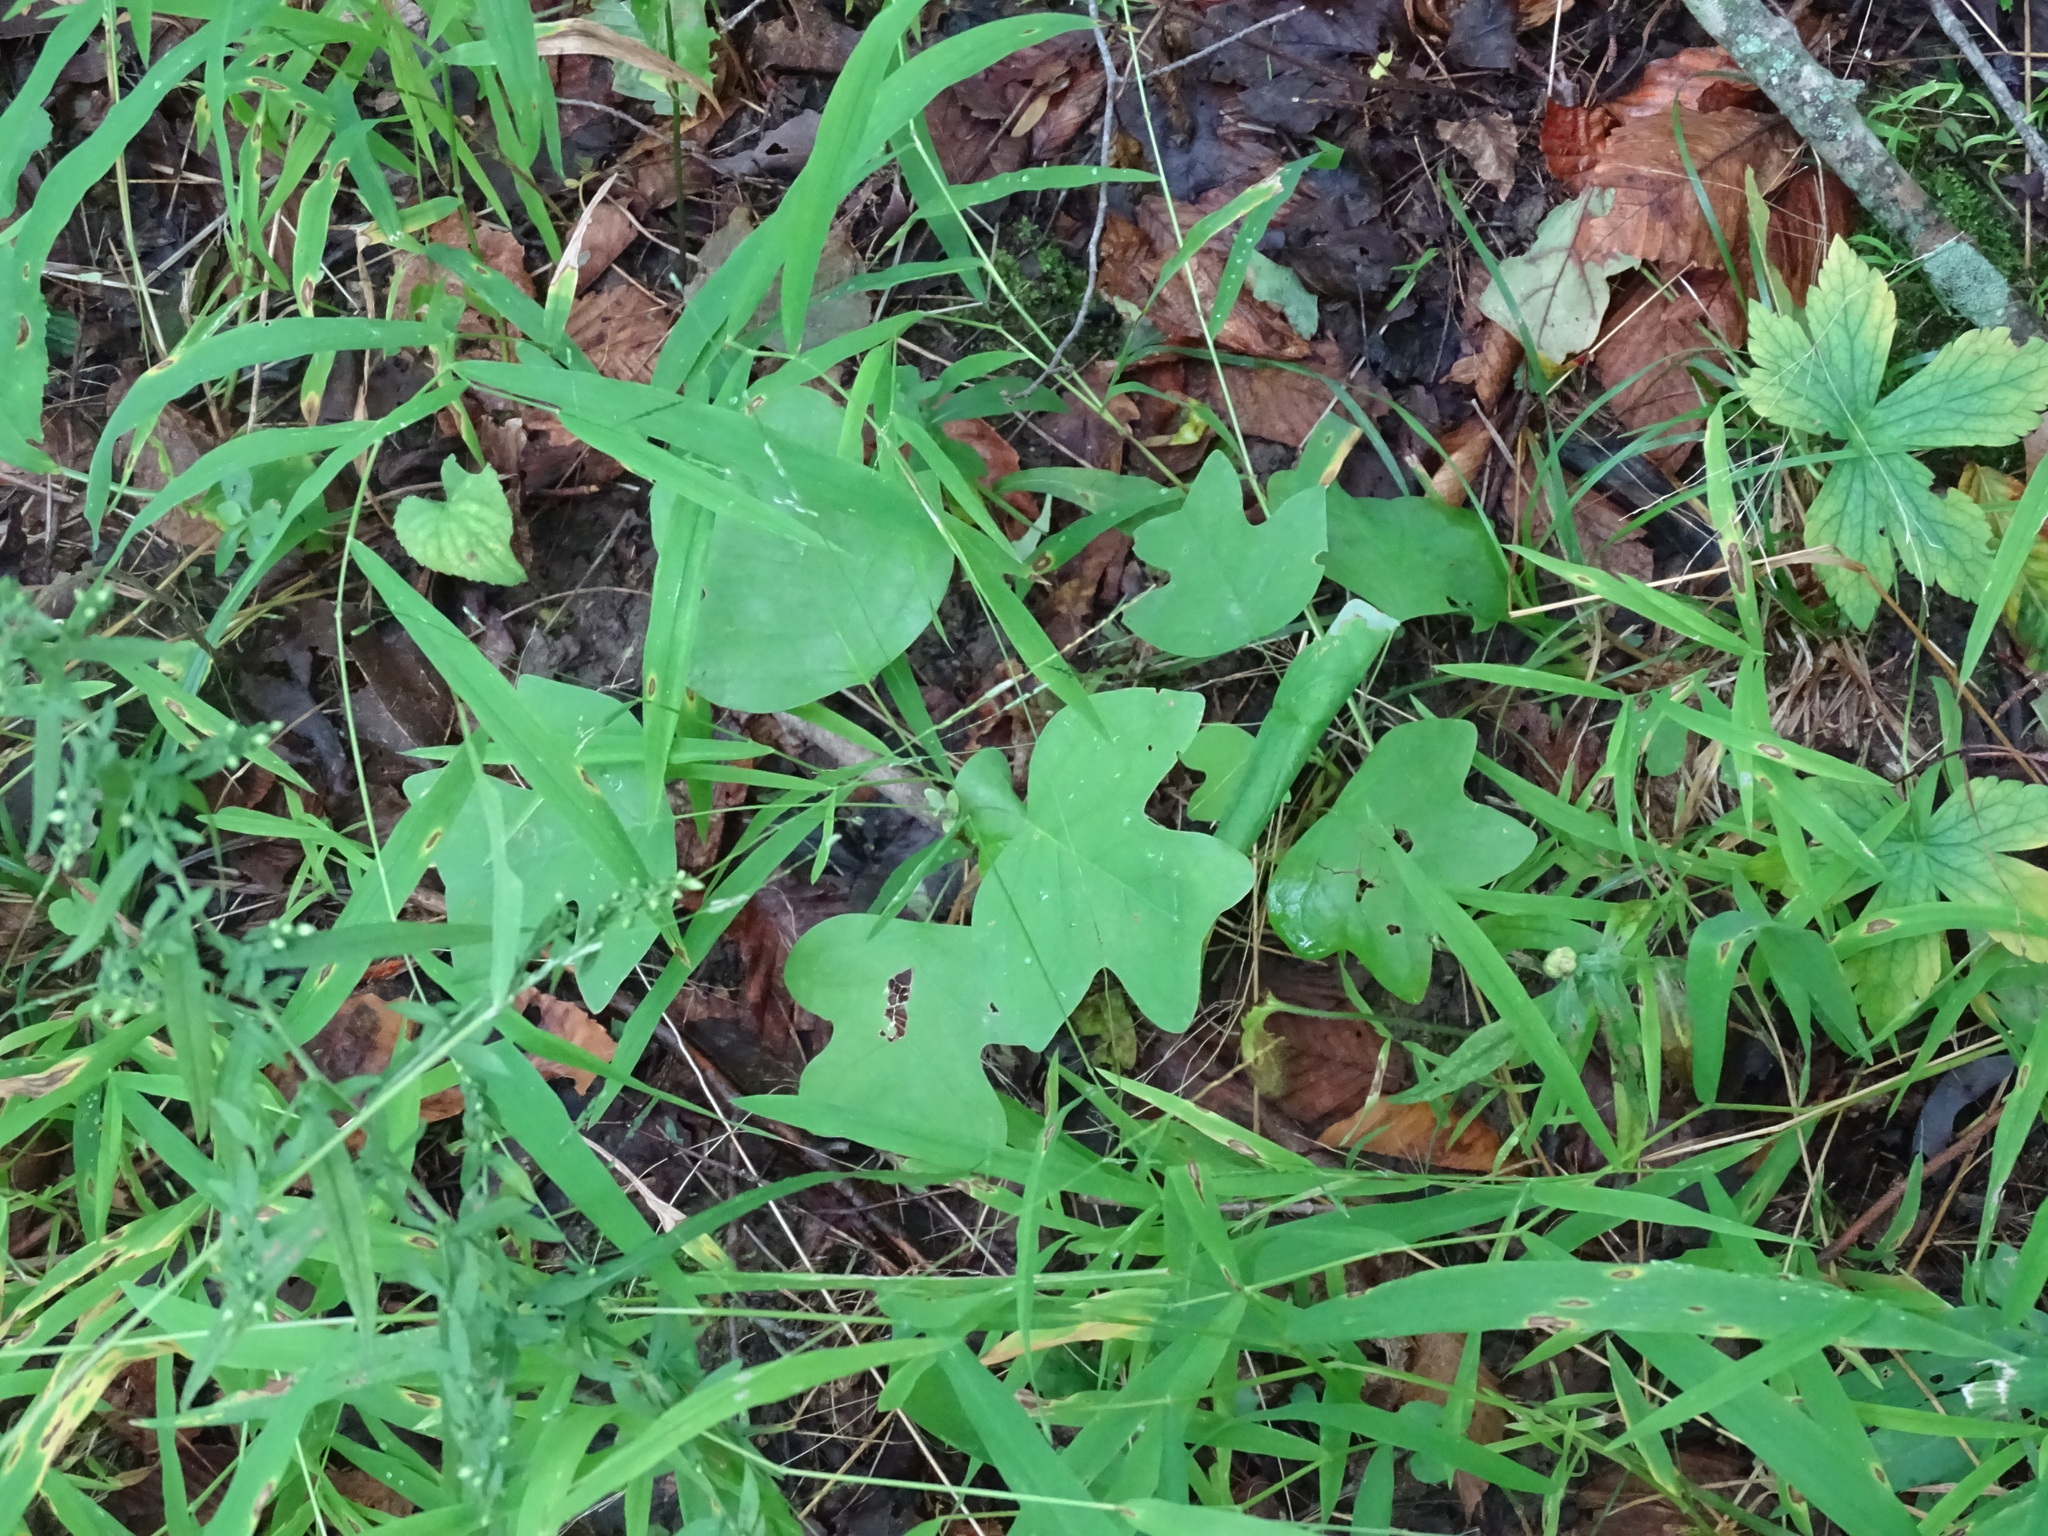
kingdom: Plantae
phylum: Tracheophyta
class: Magnoliopsida
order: Magnoliales
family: Magnoliaceae
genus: Liriodendron
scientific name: Liriodendron tulipifera
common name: Tulip tree
